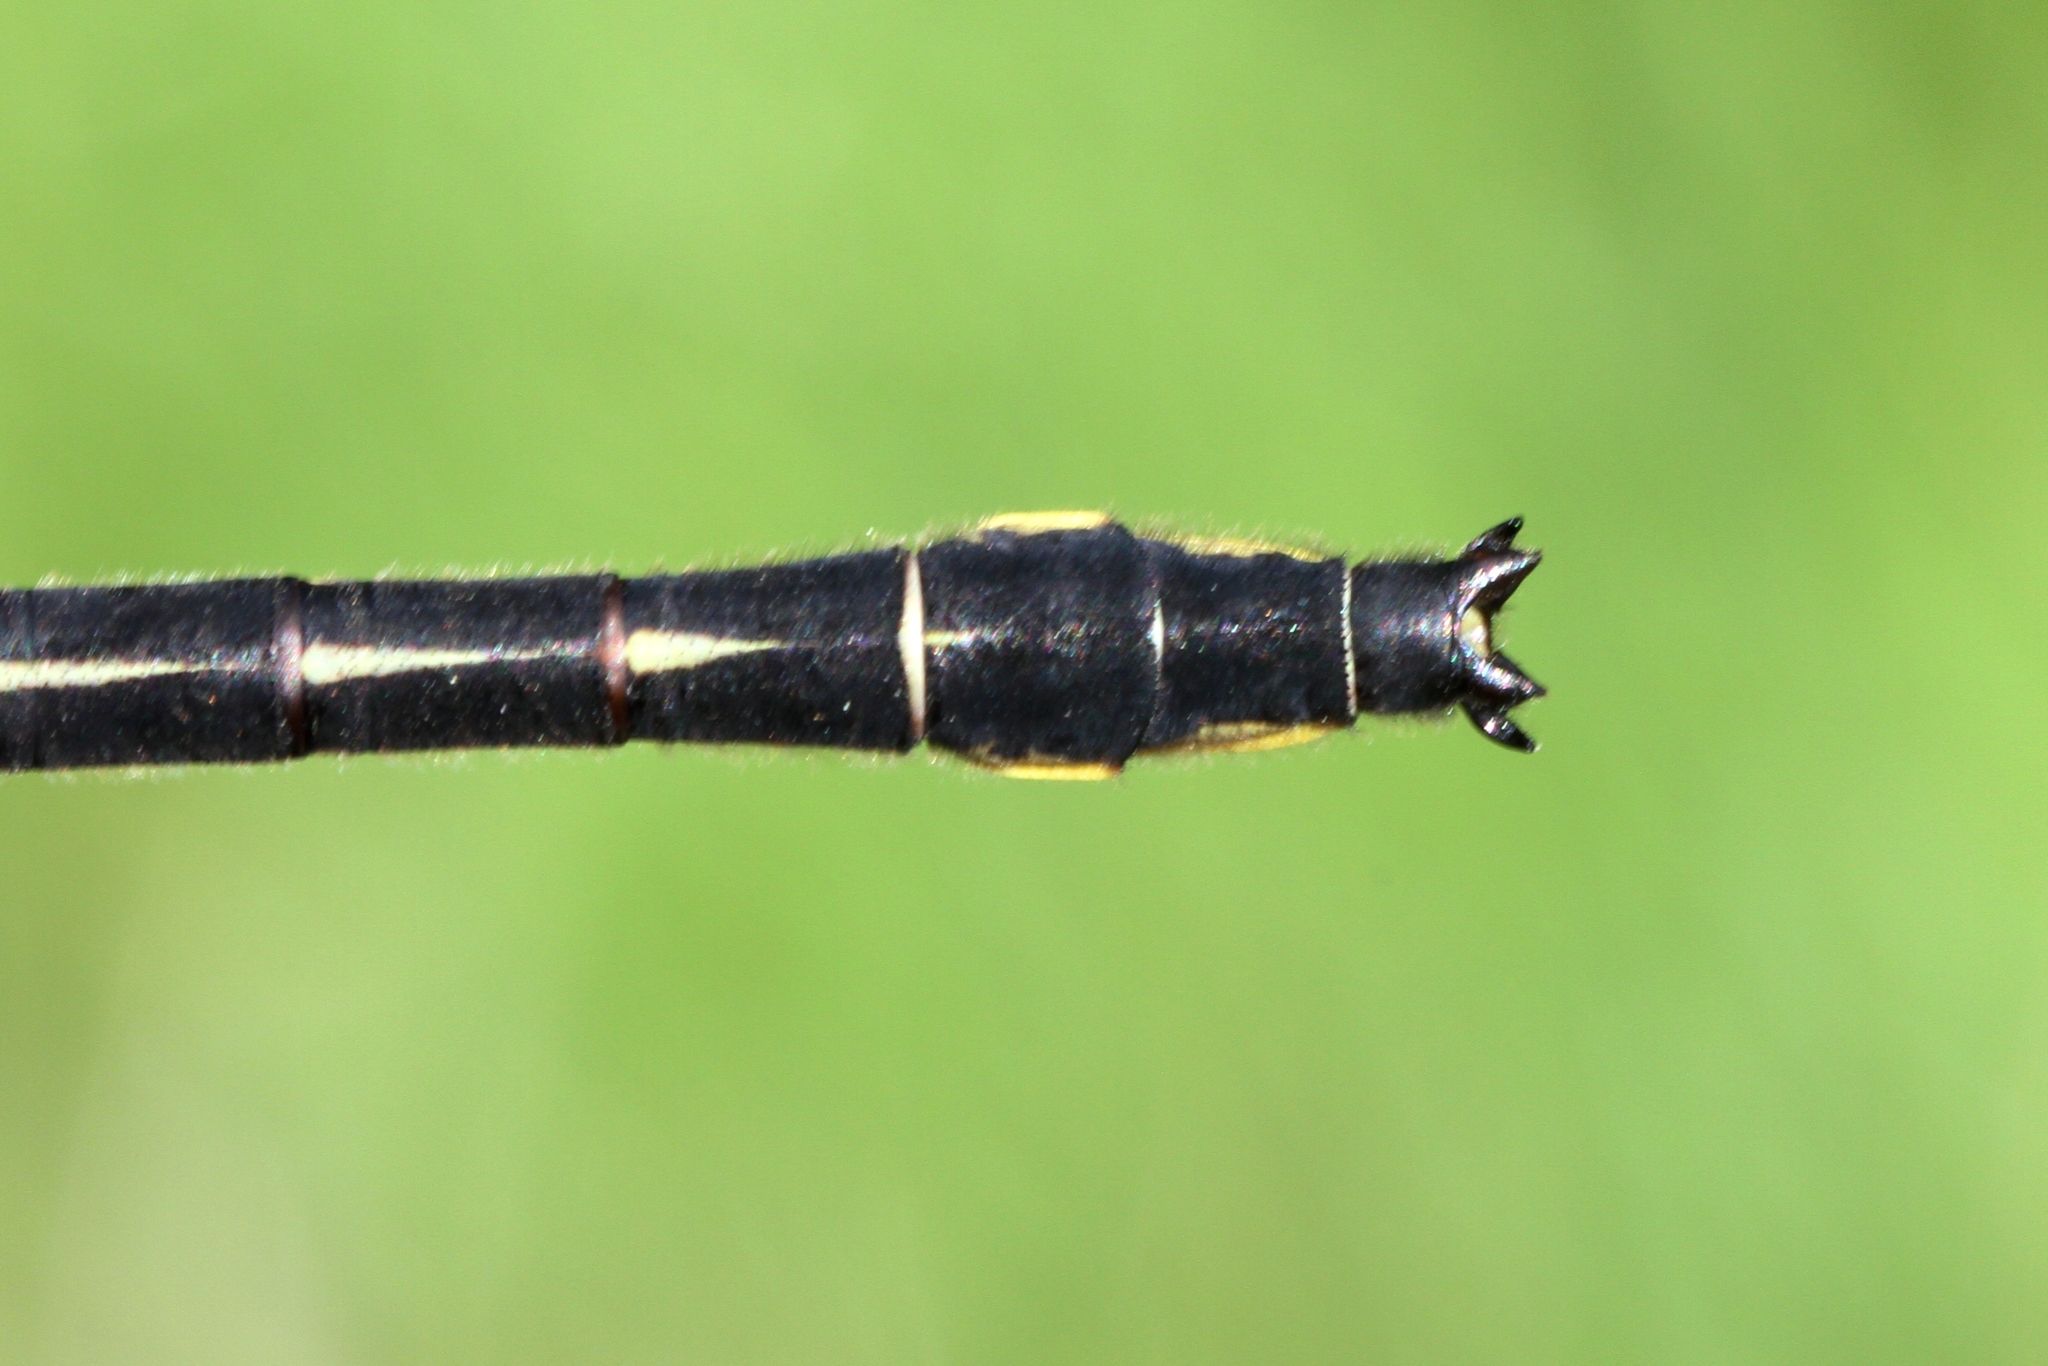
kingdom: Animalia
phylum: Arthropoda
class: Insecta
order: Odonata
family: Gomphidae
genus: Phanogomphus
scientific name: Phanogomphus borealis
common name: Beaverpond clubtail
